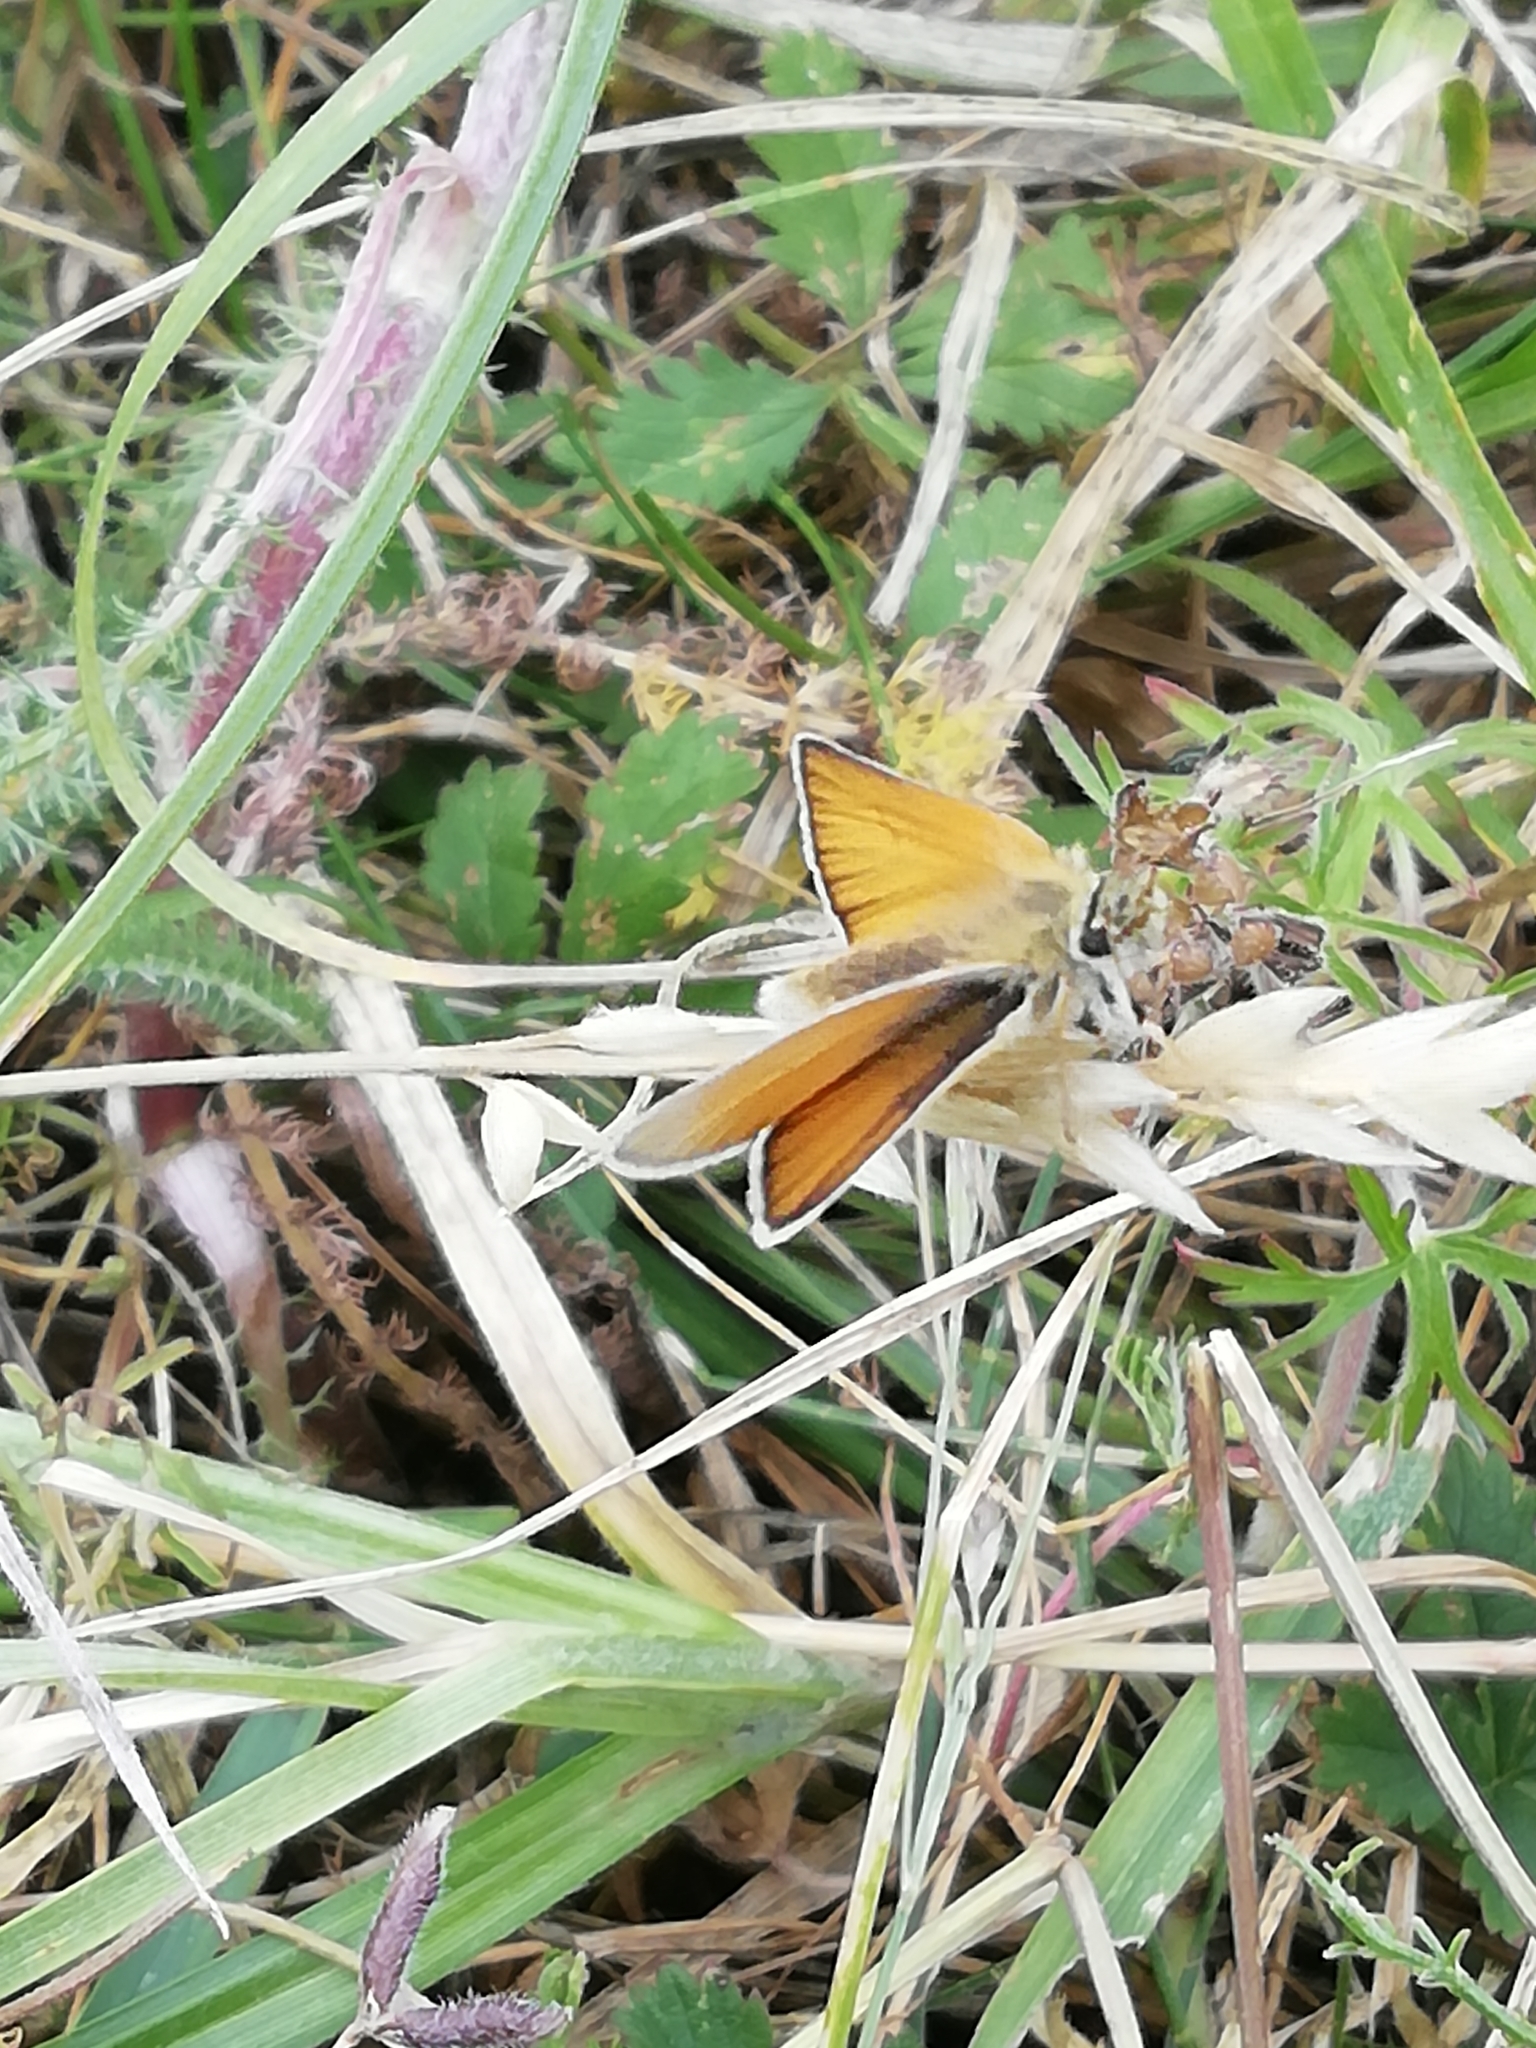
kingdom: Animalia
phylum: Arthropoda
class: Insecta
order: Lepidoptera
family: Hesperiidae
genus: Thymelicus
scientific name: Thymelicus lineola
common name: Essex skipper
